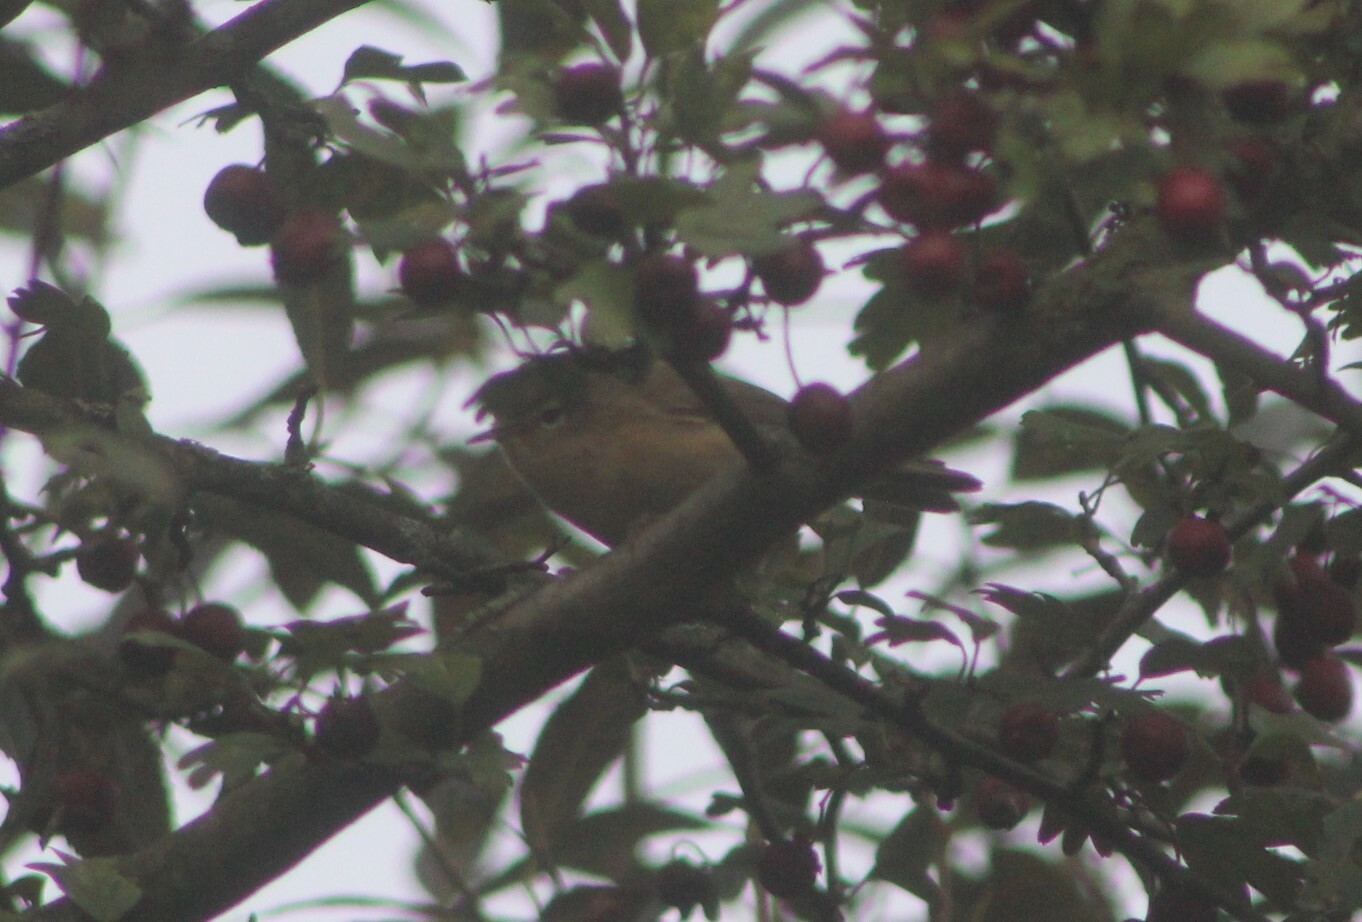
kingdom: Animalia
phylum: Chordata
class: Aves
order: Passeriformes
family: Phylloscopidae
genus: Phylloscopus
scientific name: Phylloscopus collybita
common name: Common chiffchaff
